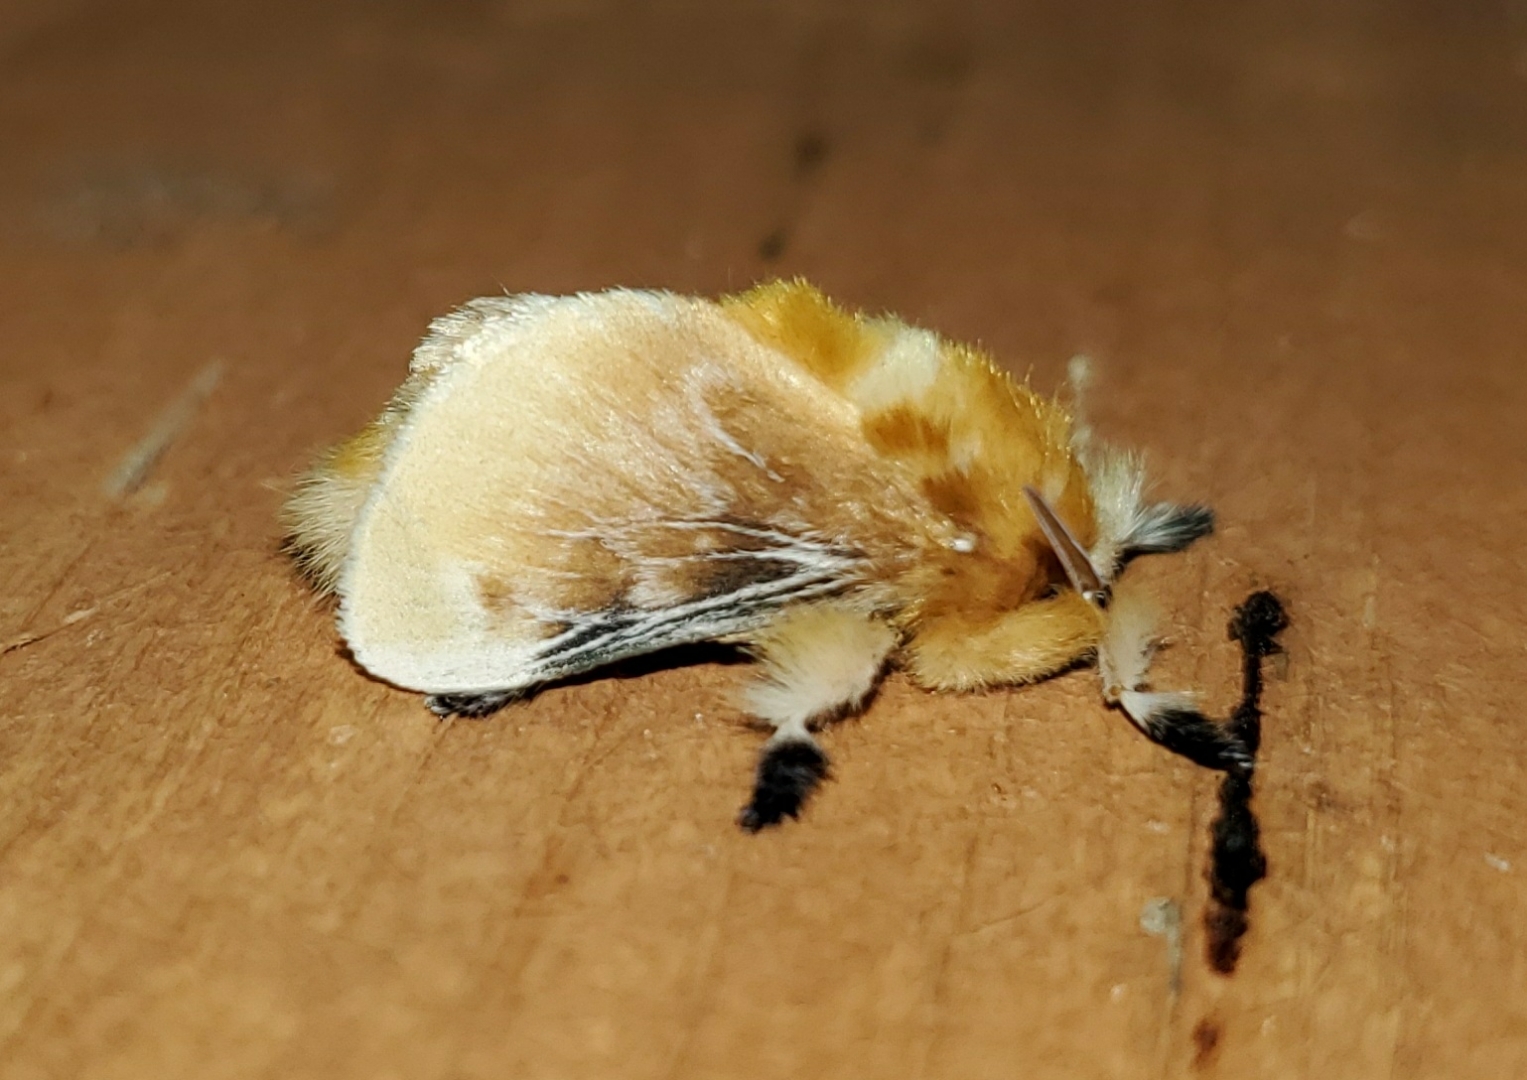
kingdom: Animalia
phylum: Arthropoda
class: Insecta
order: Lepidoptera
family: Megalopygidae
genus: Megalopyge
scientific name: Megalopyge opercularis
